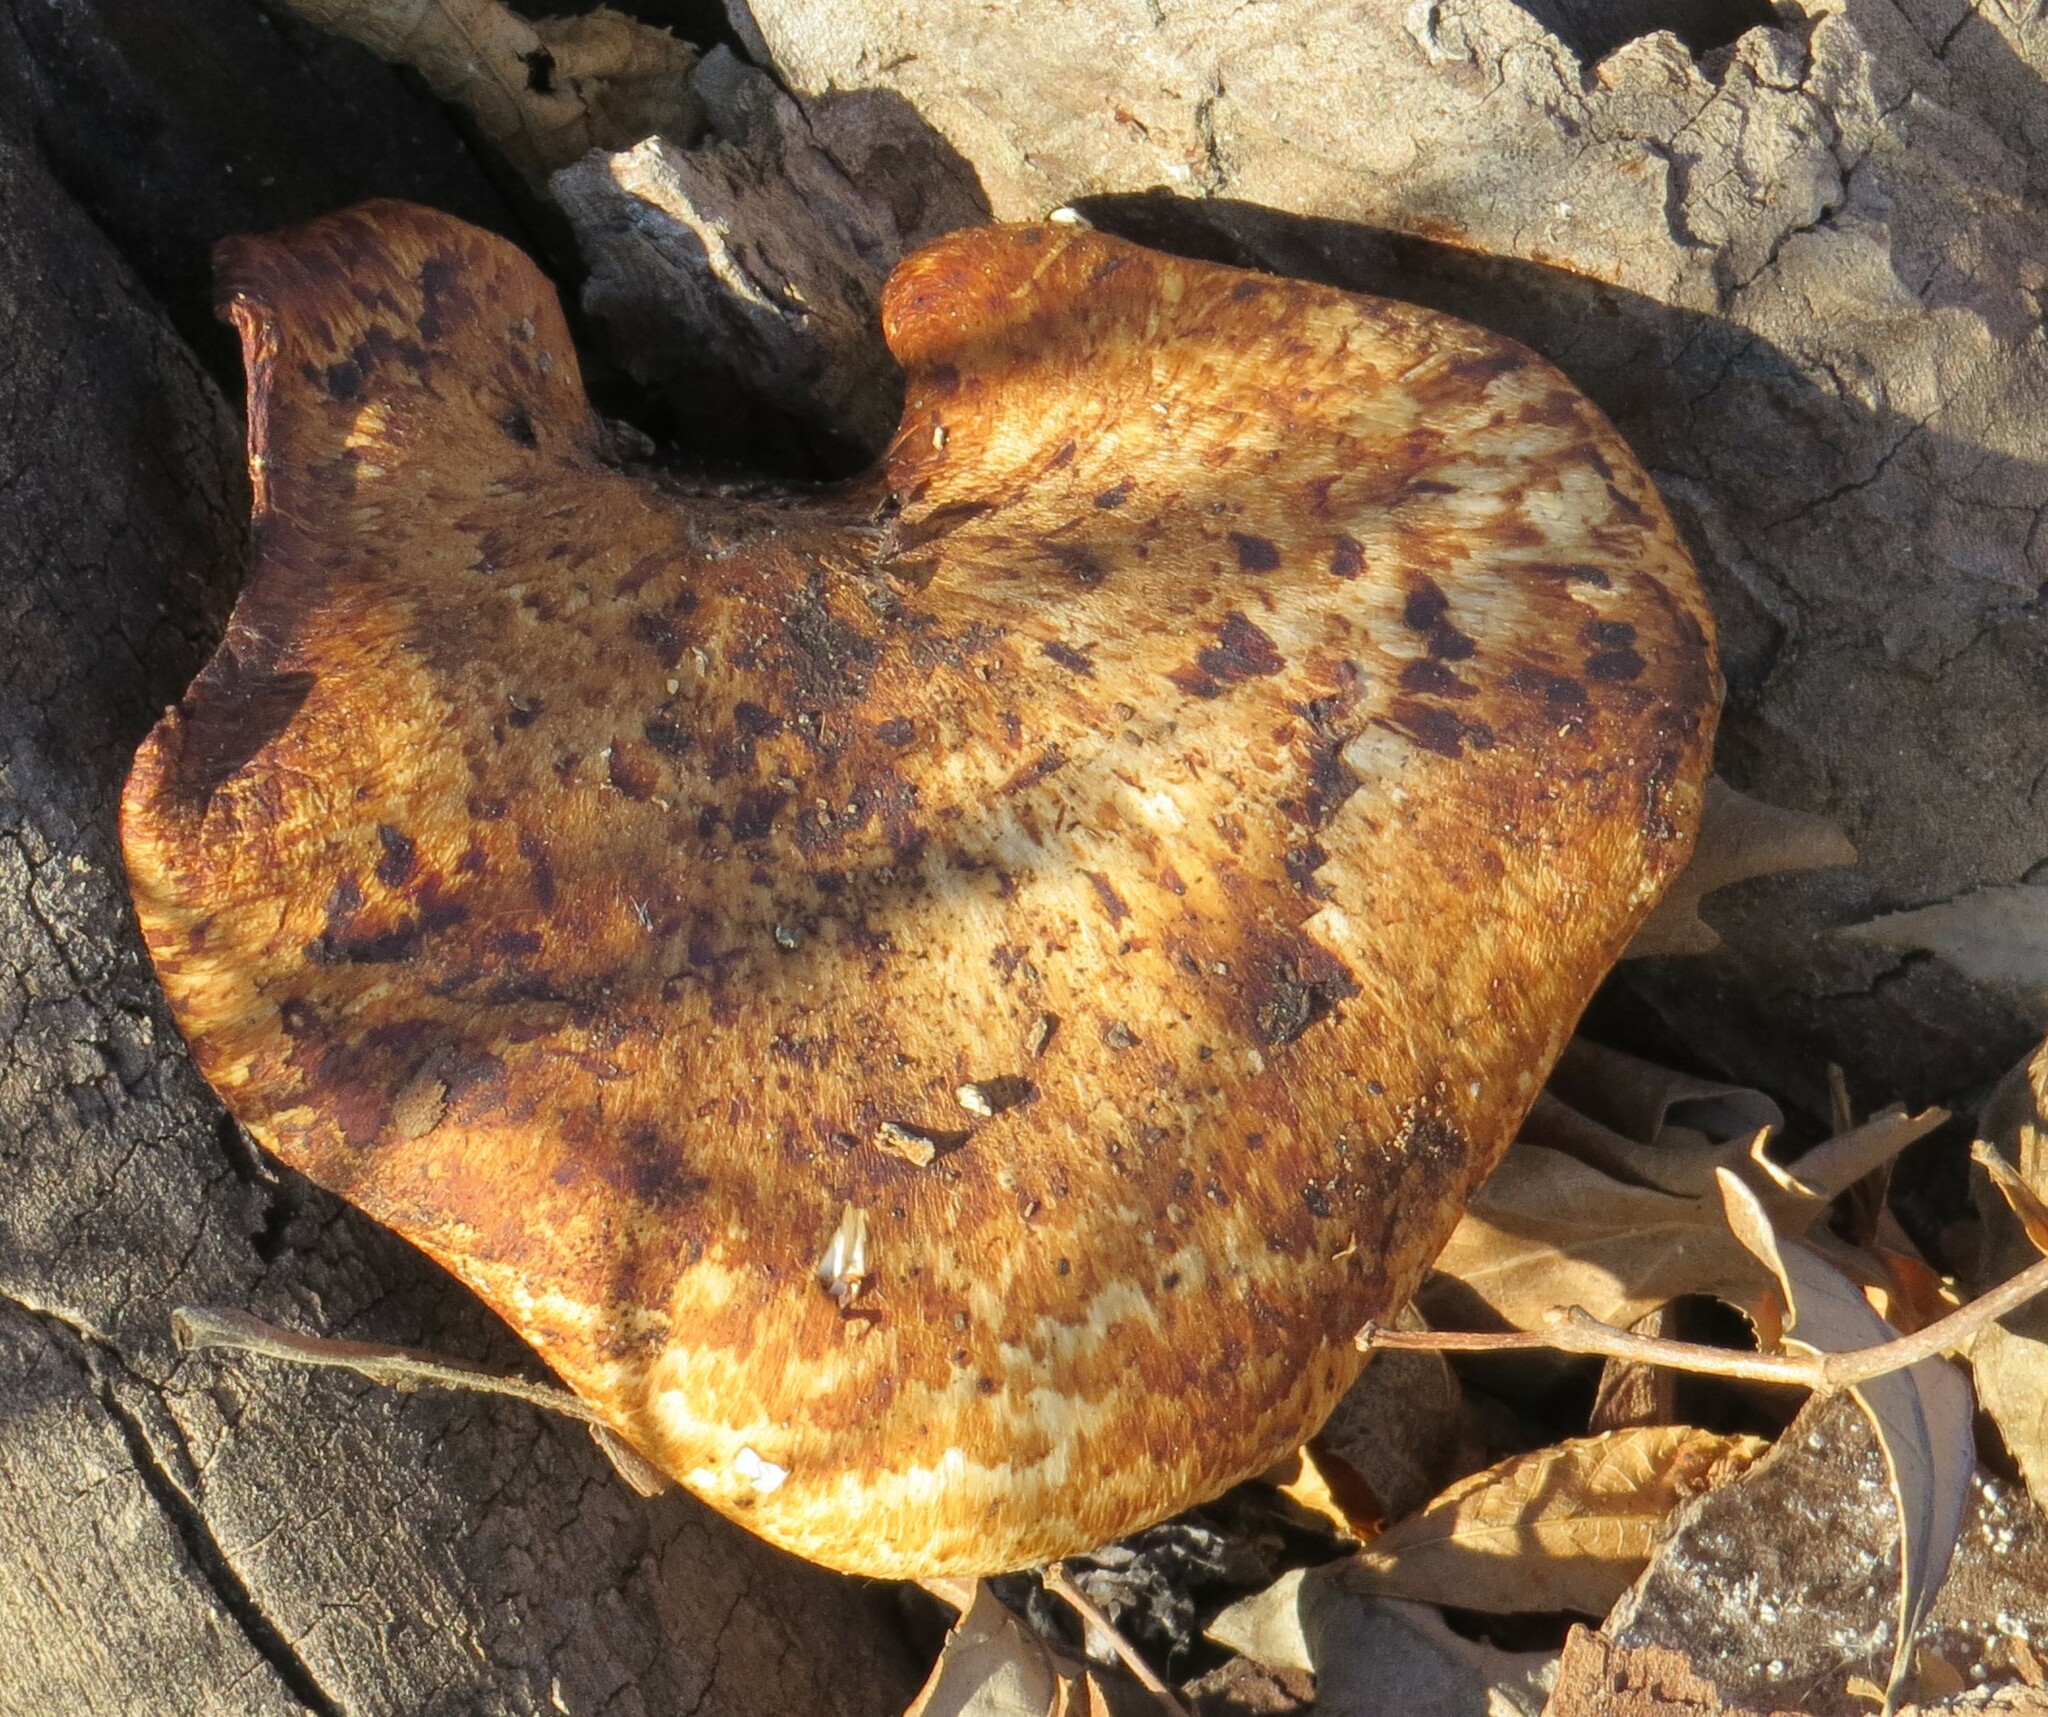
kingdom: Fungi
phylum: Basidiomycota
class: Agaricomycetes
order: Polyporales
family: Polyporaceae
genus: Cerioporus
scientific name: Cerioporus squamosus
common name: Dryad's saddle
